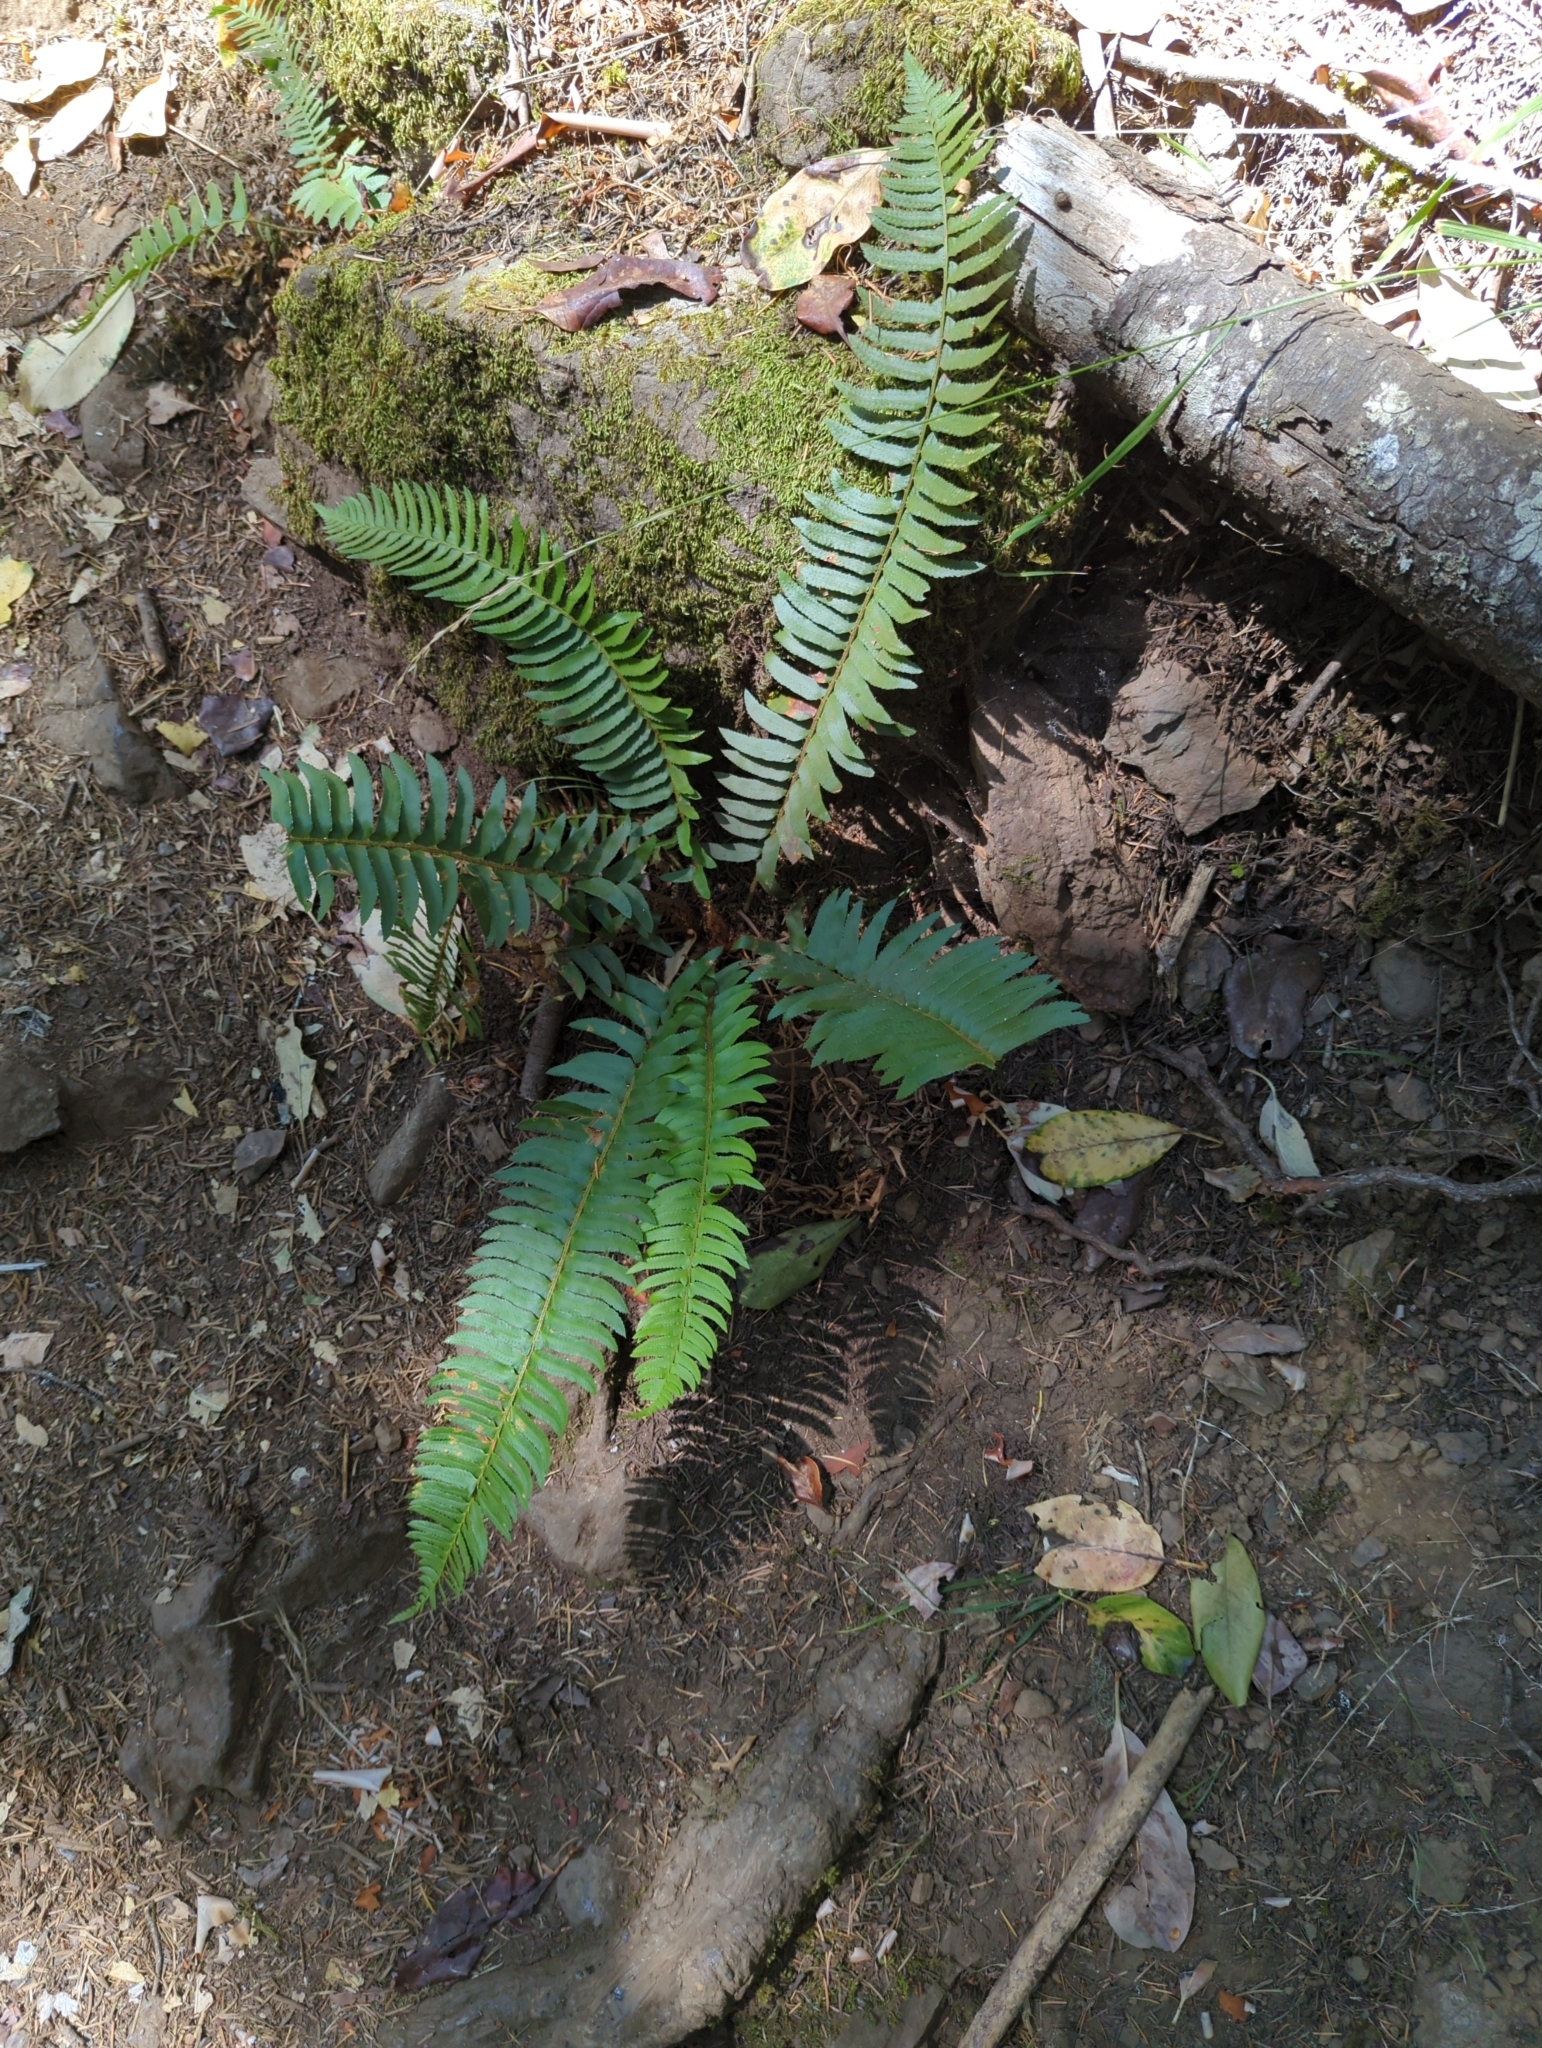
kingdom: Plantae
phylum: Tracheophyta
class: Polypodiopsida
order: Polypodiales
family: Dryopteridaceae
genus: Polystichum
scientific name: Polystichum munitum
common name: Western sword-fern
